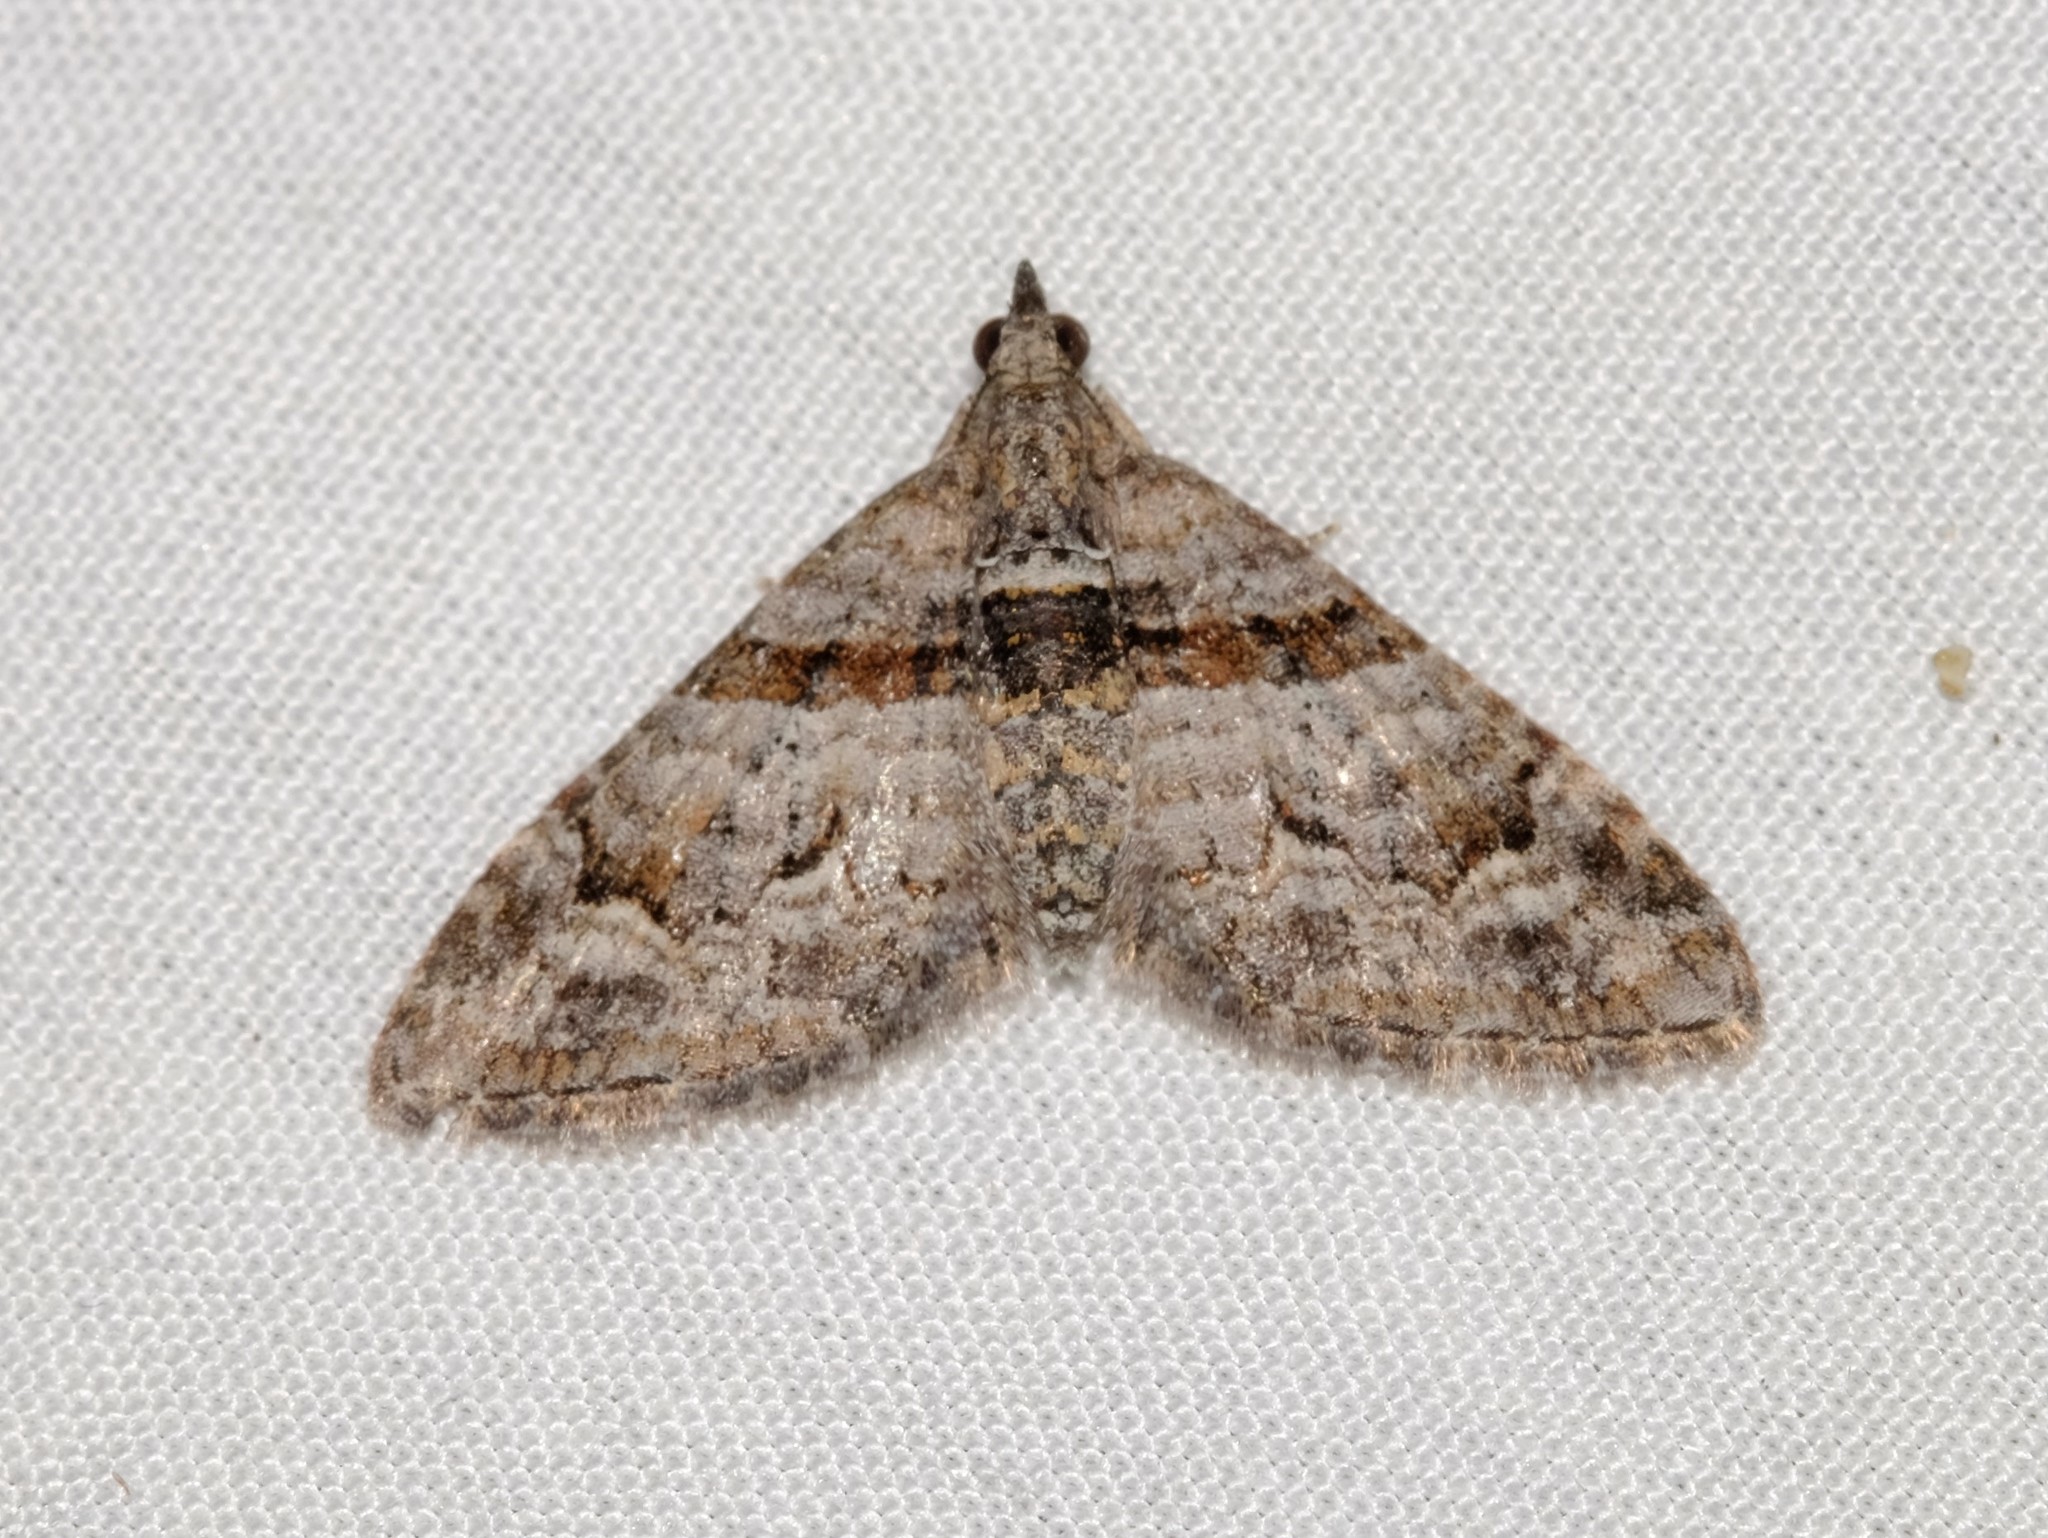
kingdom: Animalia
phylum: Arthropoda
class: Insecta
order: Lepidoptera
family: Geometridae
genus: Phrissogonus
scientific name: Phrissogonus laticostata
